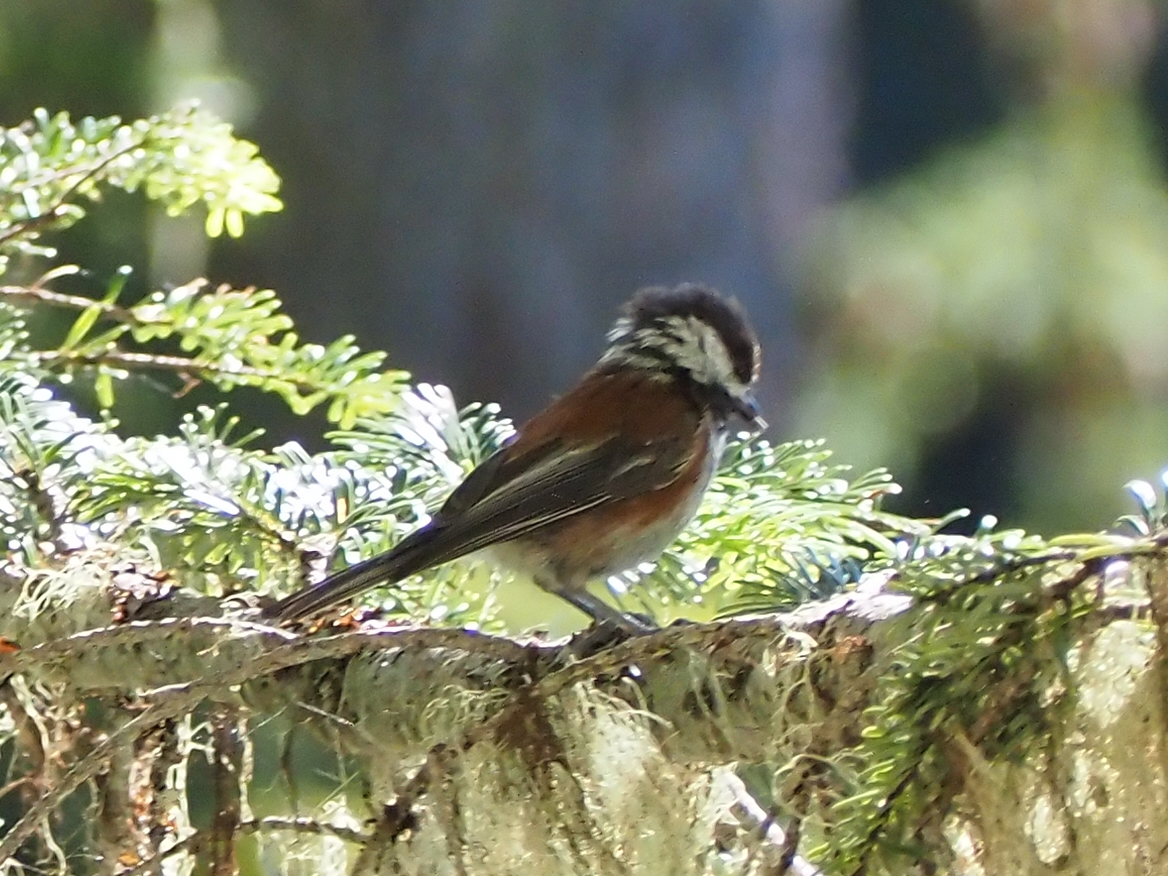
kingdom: Animalia
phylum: Chordata
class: Aves
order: Passeriformes
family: Paridae
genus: Poecile
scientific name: Poecile rufescens
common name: Chestnut-backed chickadee
